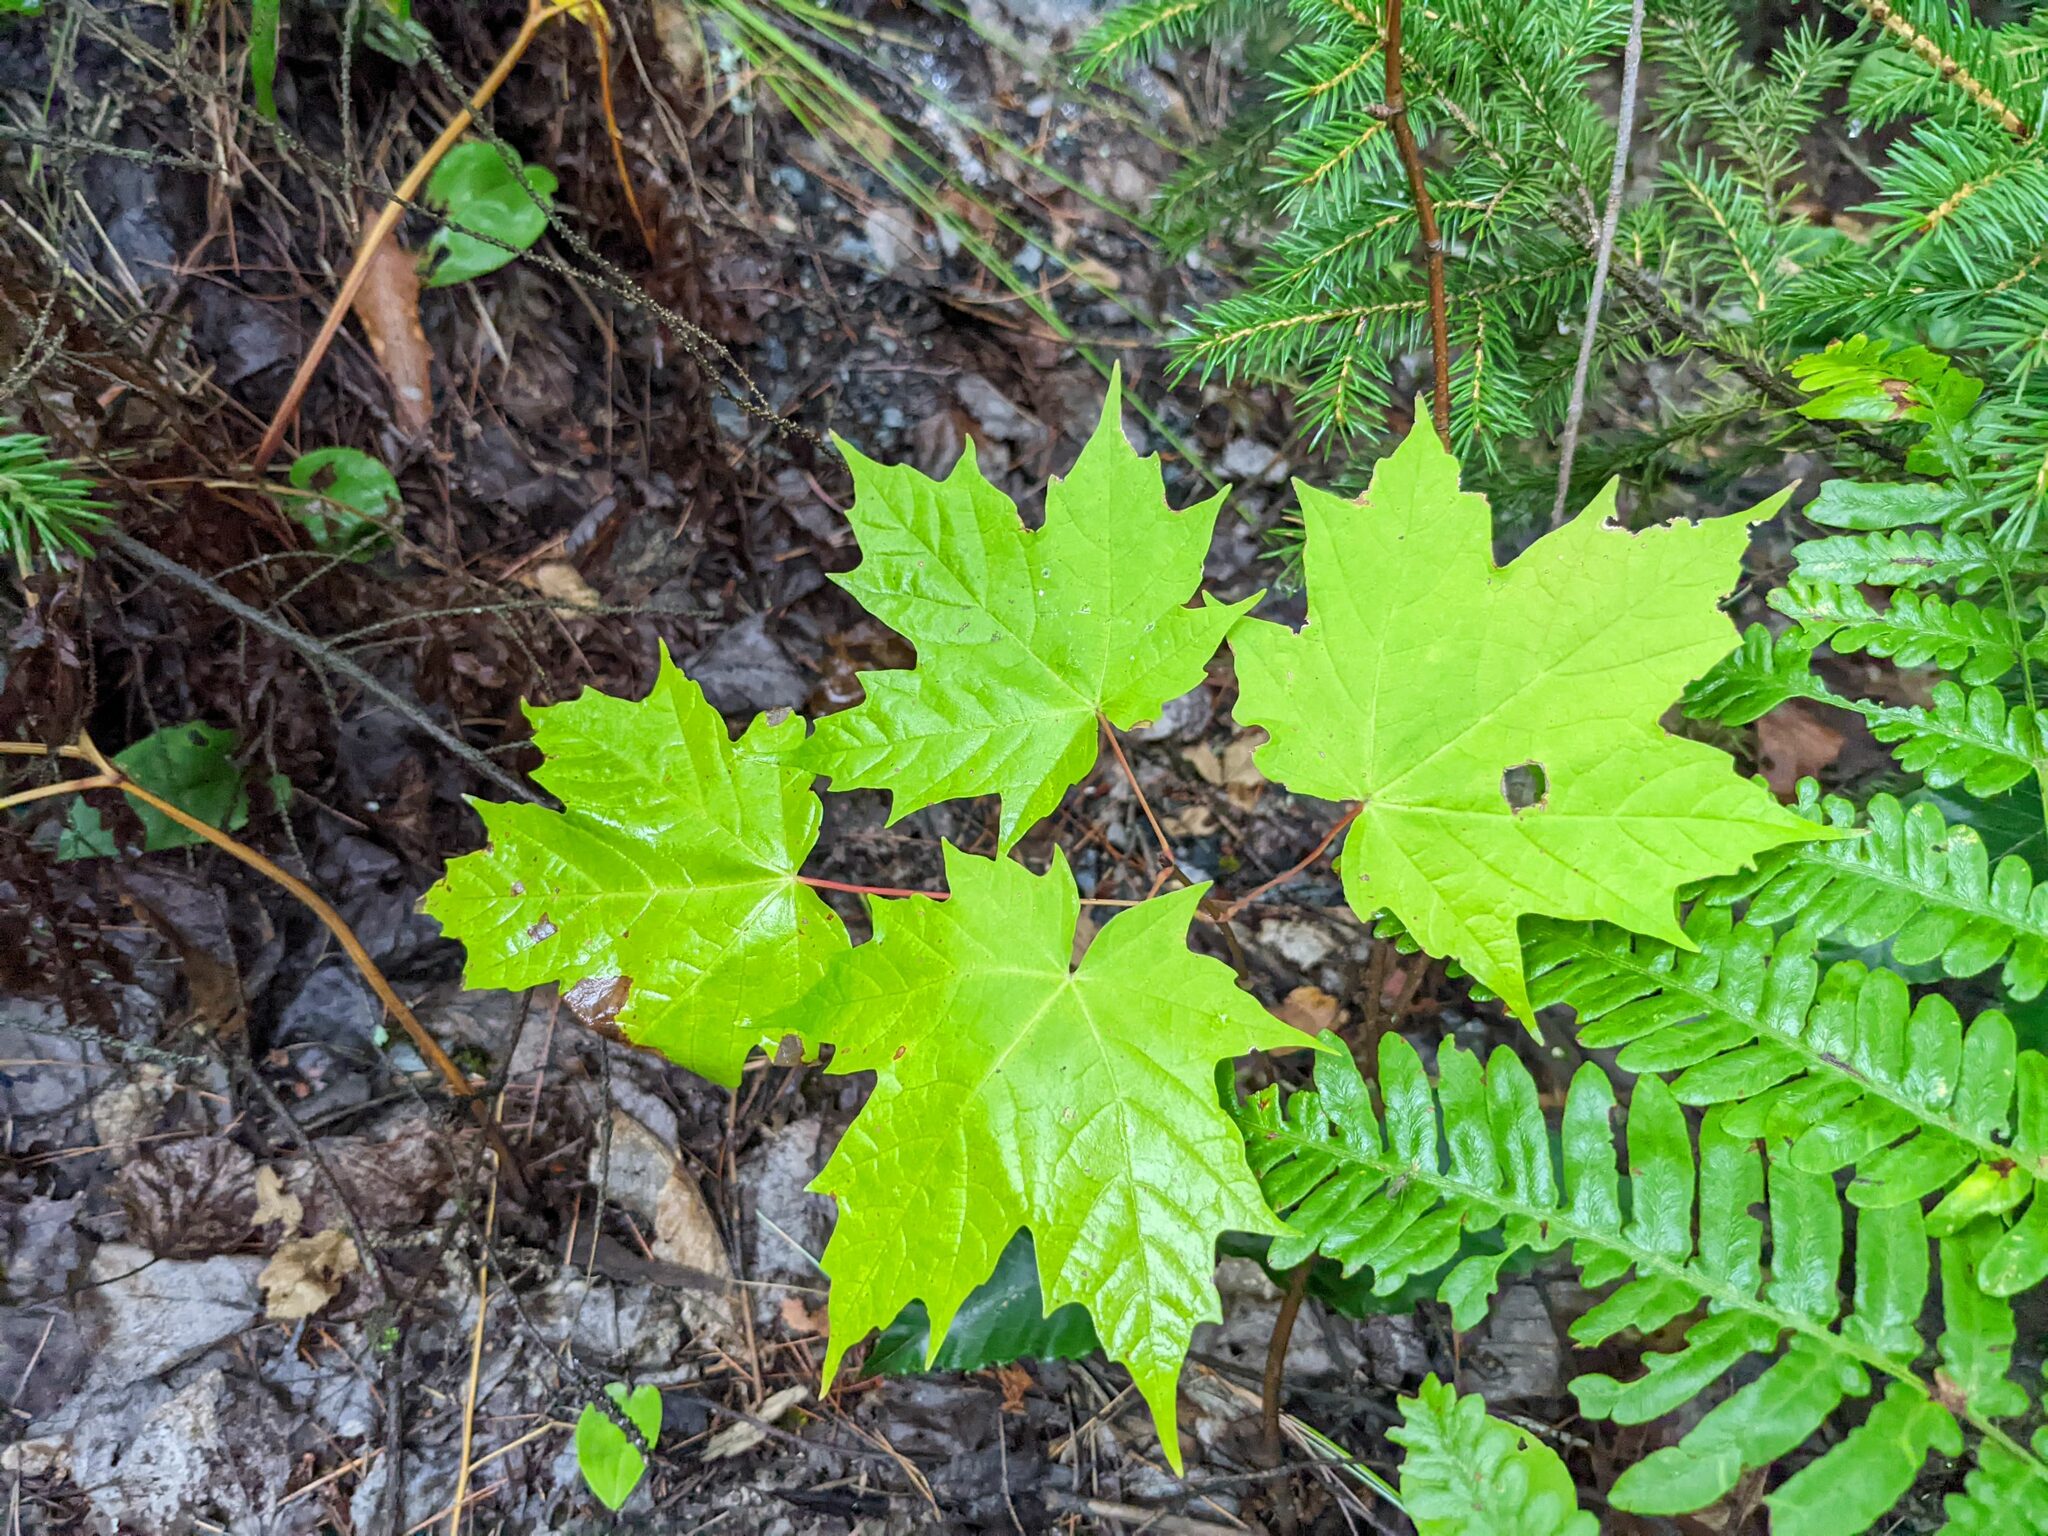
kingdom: Plantae
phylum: Tracheophyta
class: Magnoliopsida
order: Sapindales
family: Sapindaceae
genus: Acer
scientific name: Acer saccharum
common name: Sugar maple
